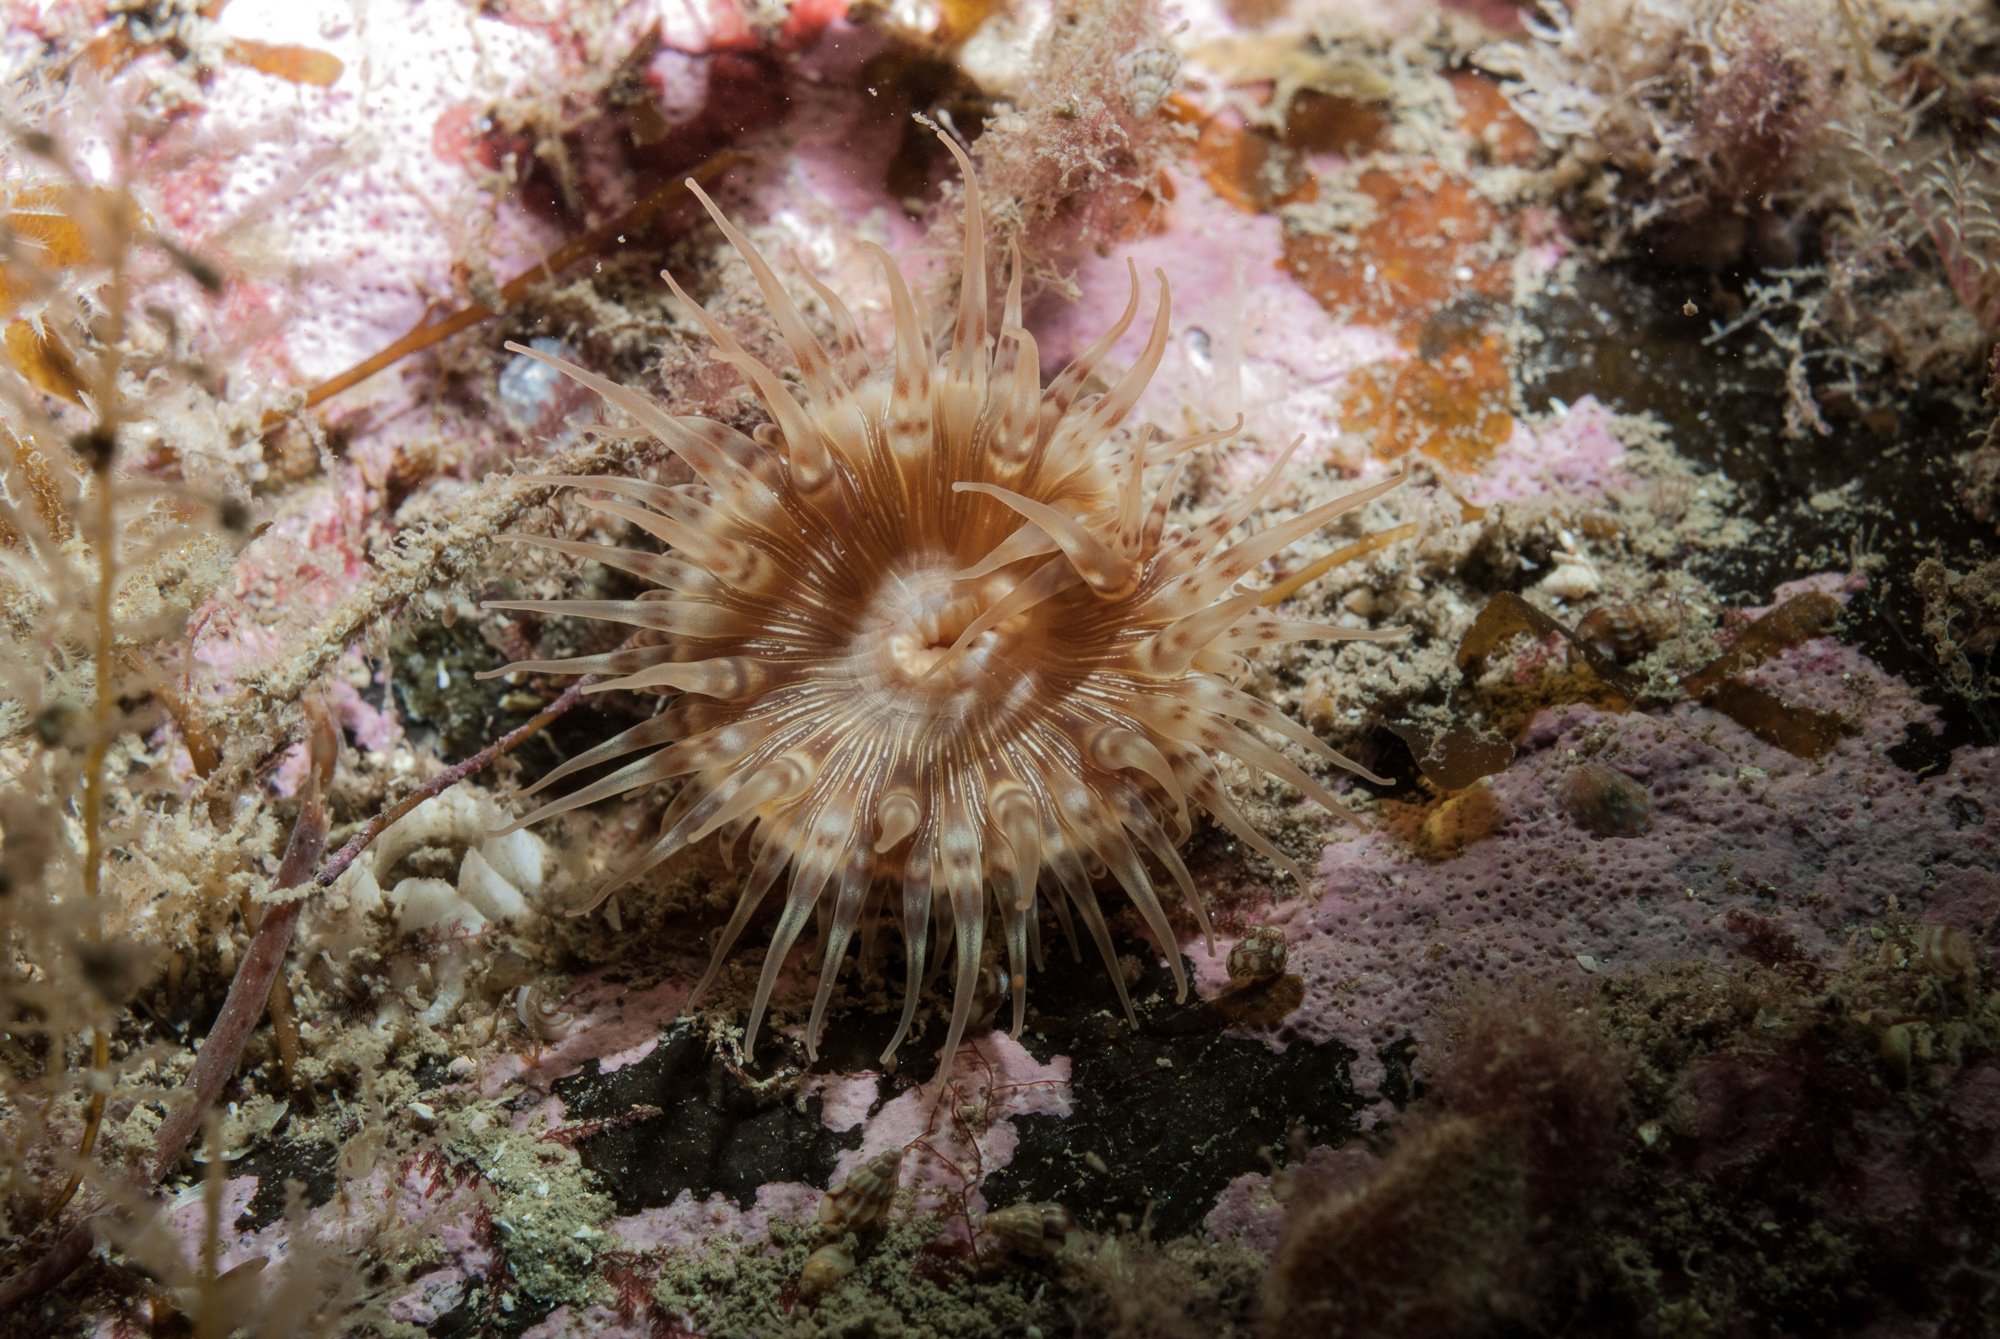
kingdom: Animalia
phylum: Cnidaria
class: Anthozoa
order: Actiniaria
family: Hormathiidae
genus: Hormathia
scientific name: Hormathia coronata
